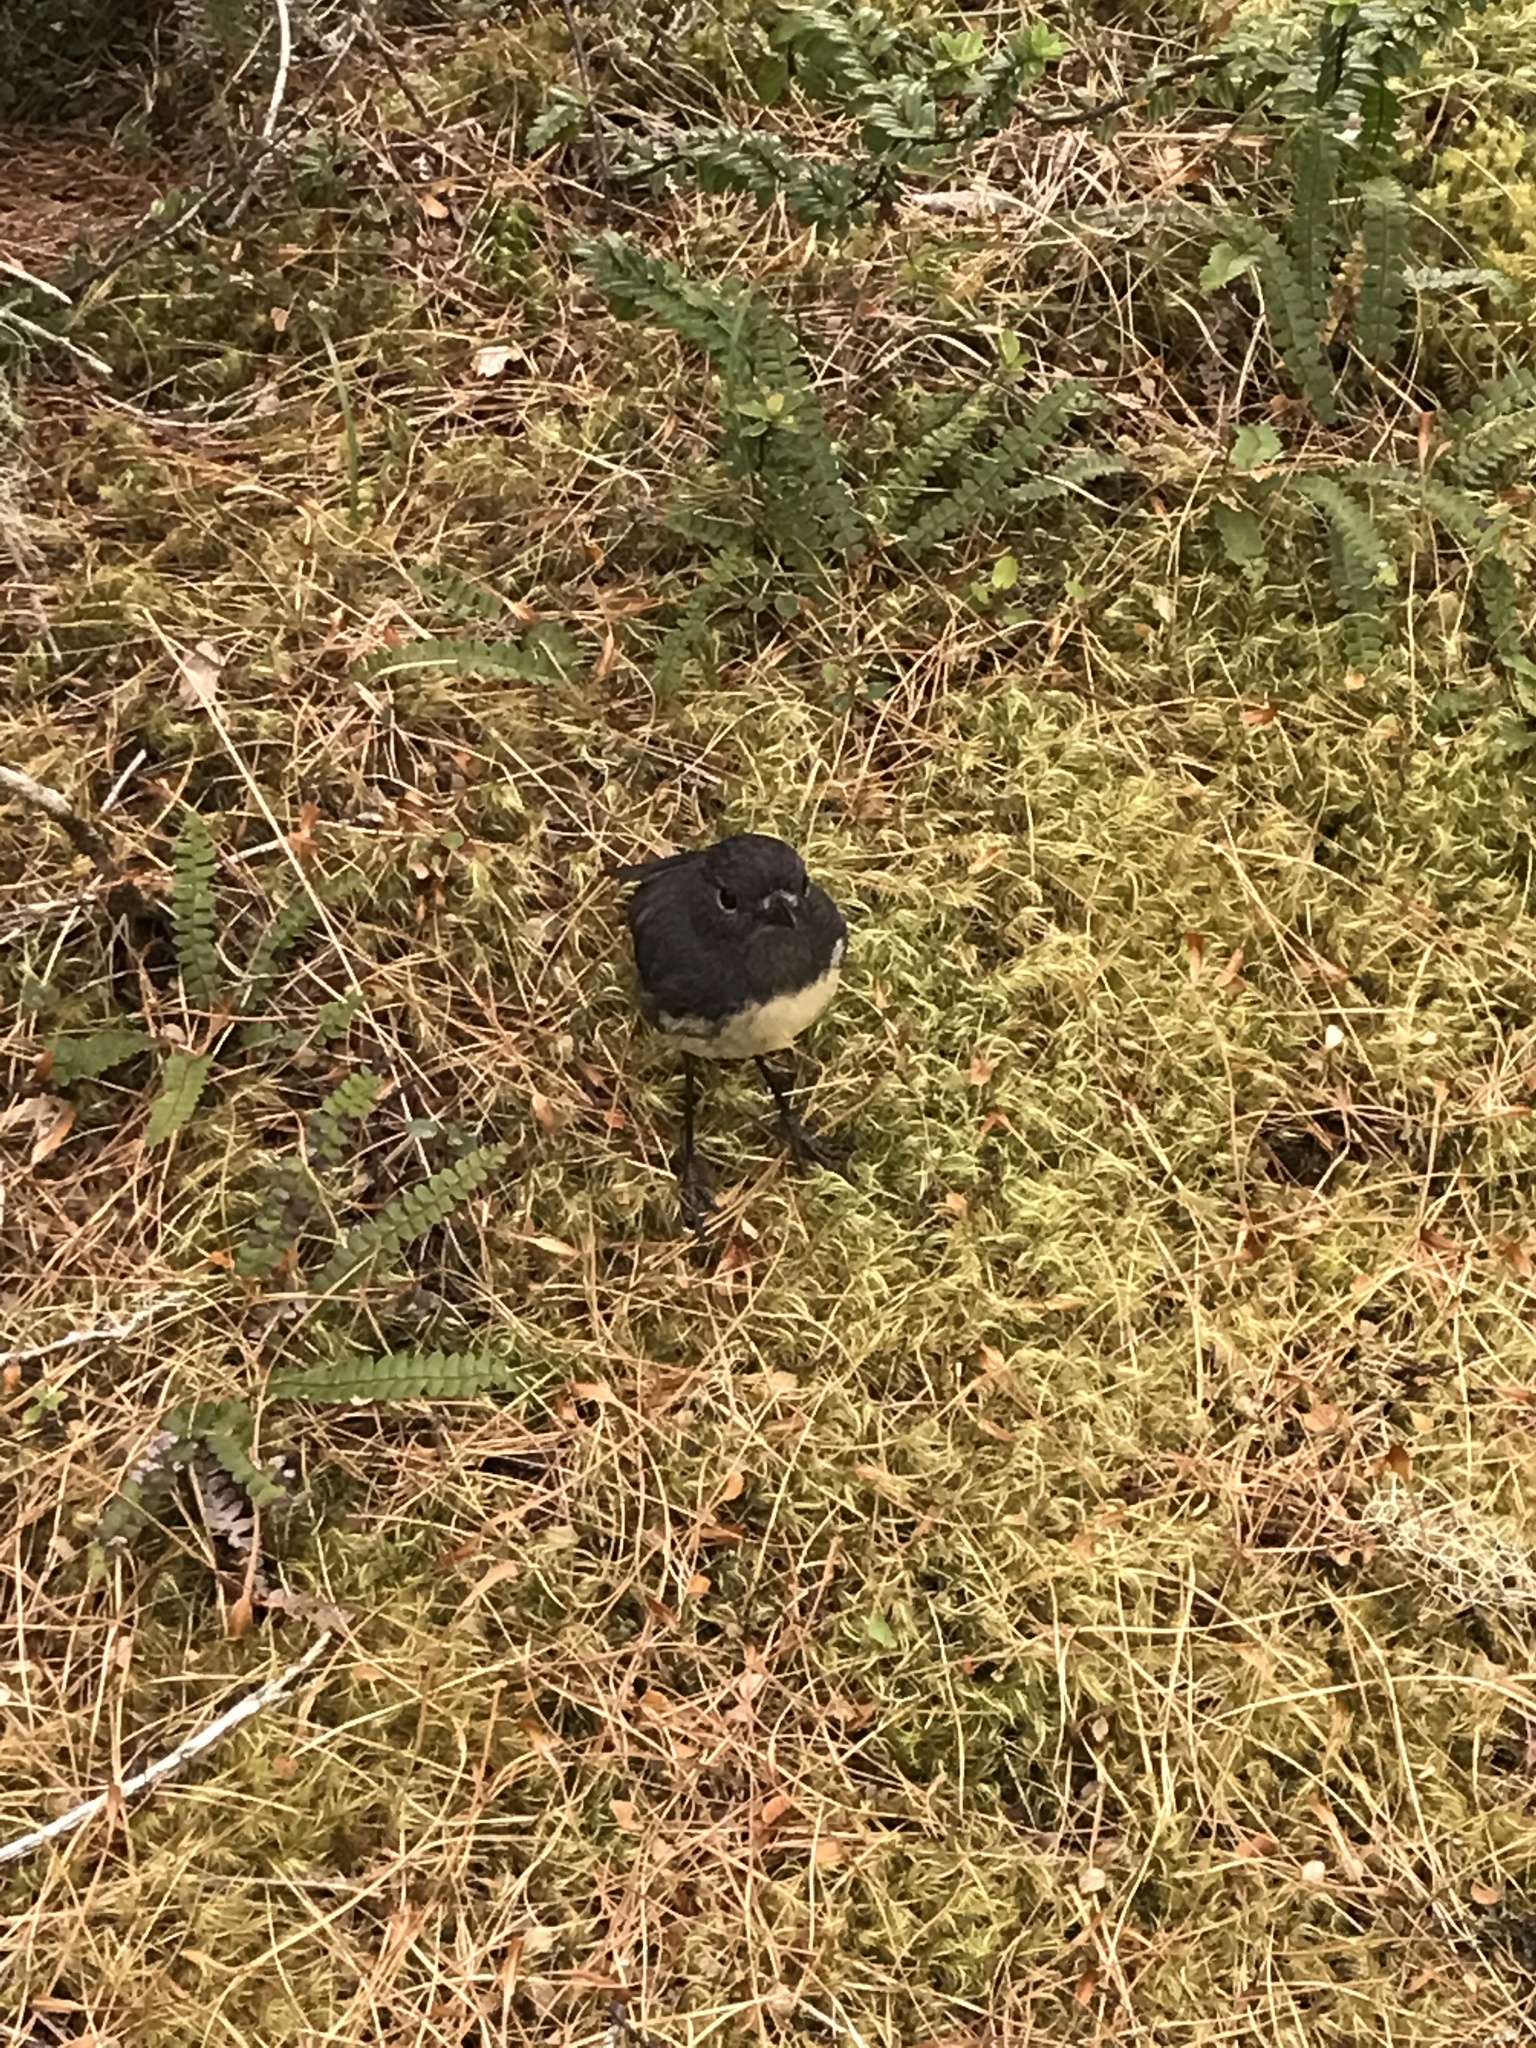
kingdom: Animalia
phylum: Chordata
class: Aves
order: Passeriformes
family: Petroicidae
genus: Petroica
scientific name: Petroica australis
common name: New zealand robin
